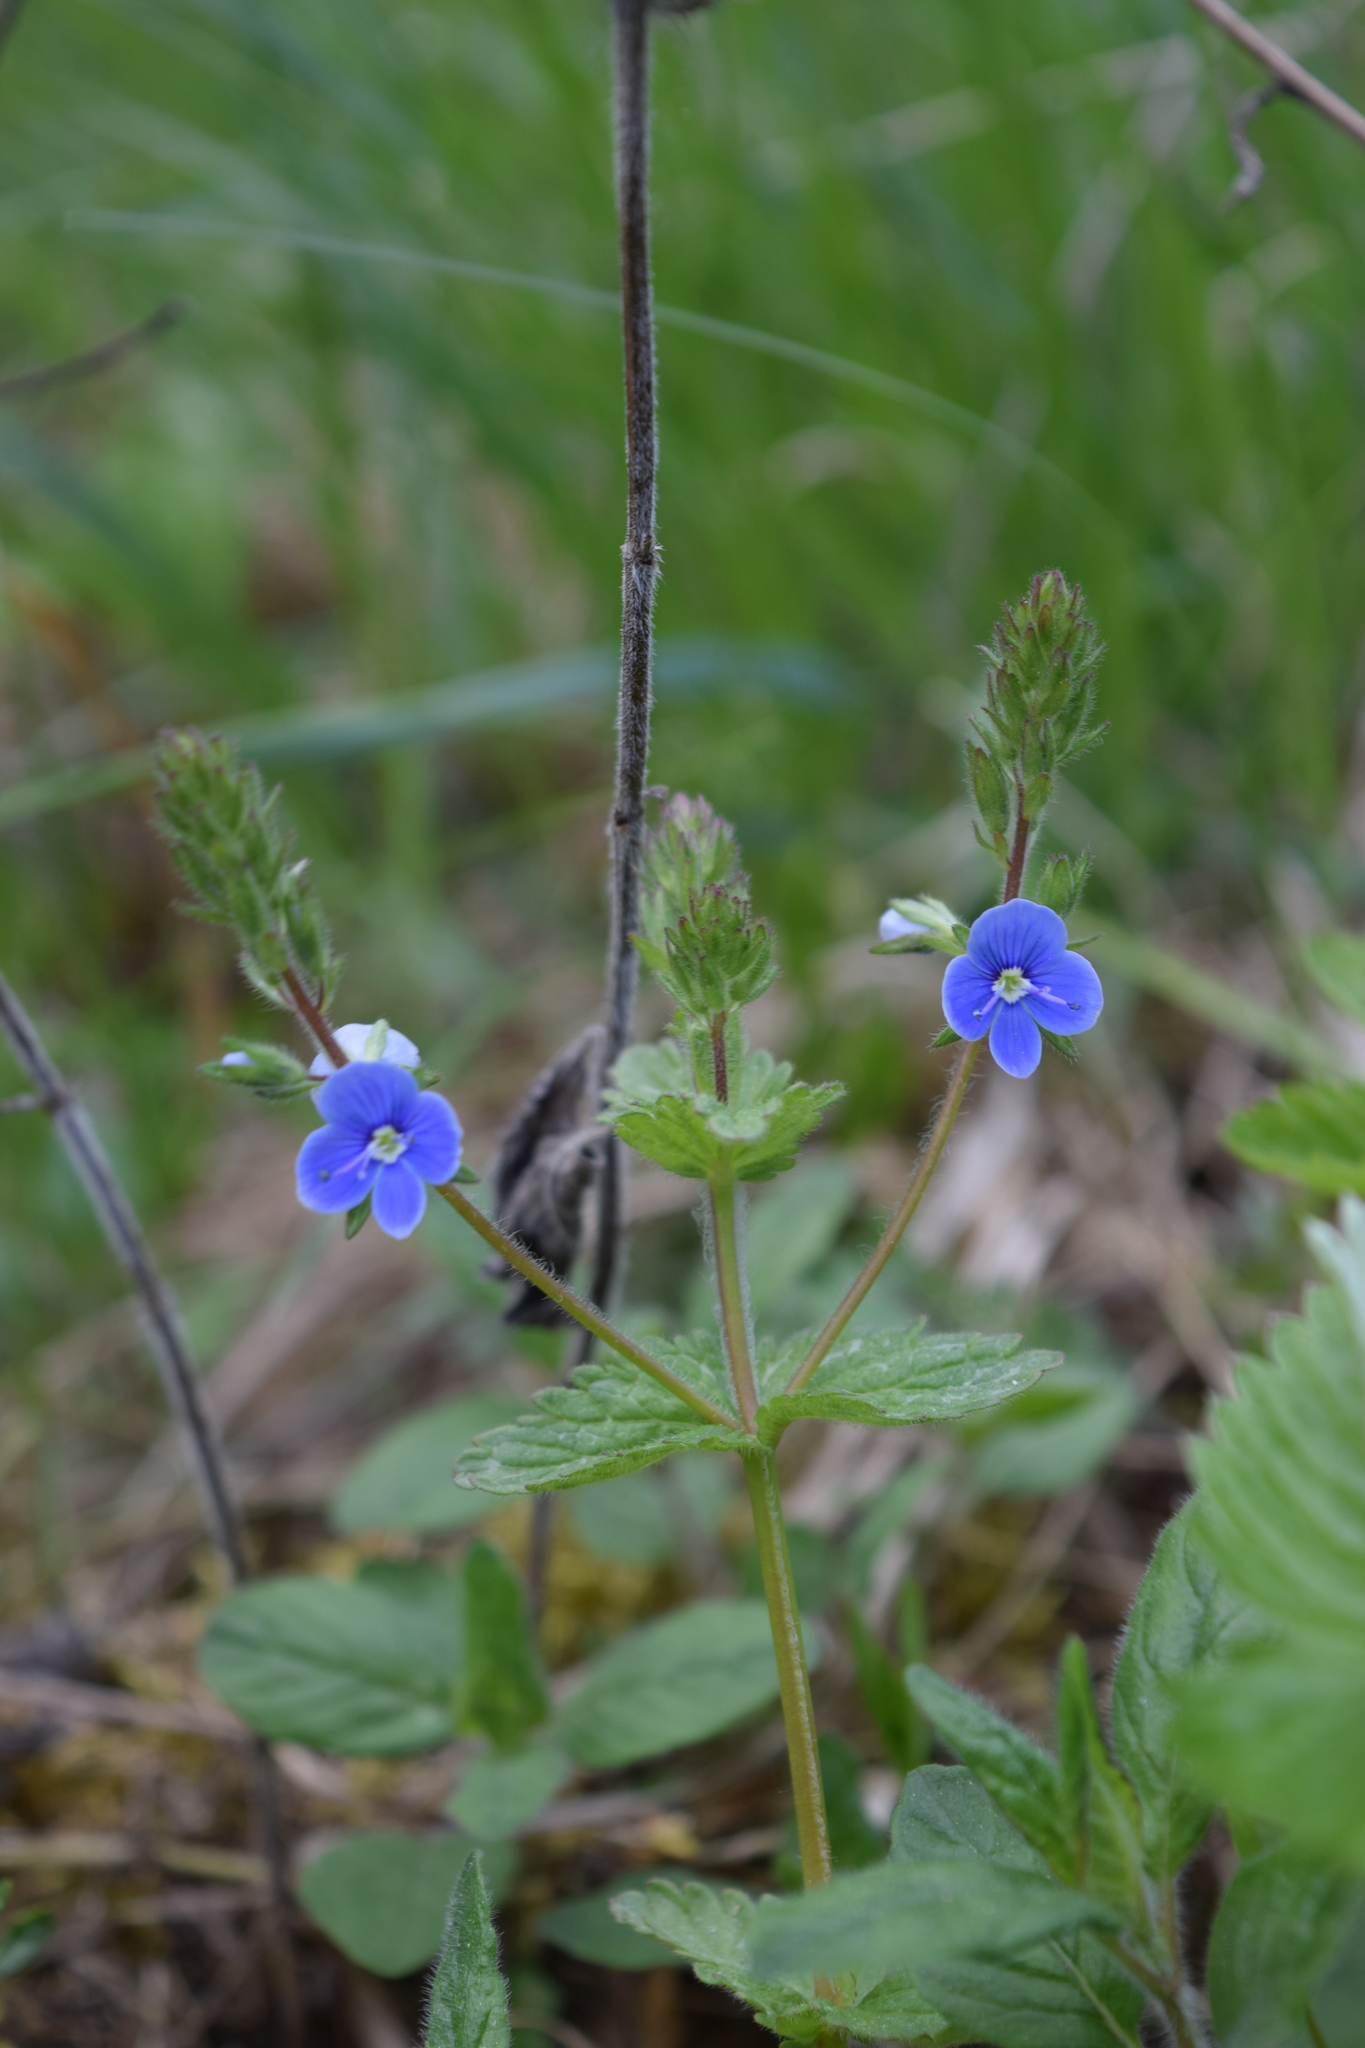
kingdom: Plantae
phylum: Tracheophyta
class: Magnoliopsida
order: Lamiales
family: Plantaginaceae
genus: Veronica
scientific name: Veronica chamaedrys
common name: Germander speedwell
